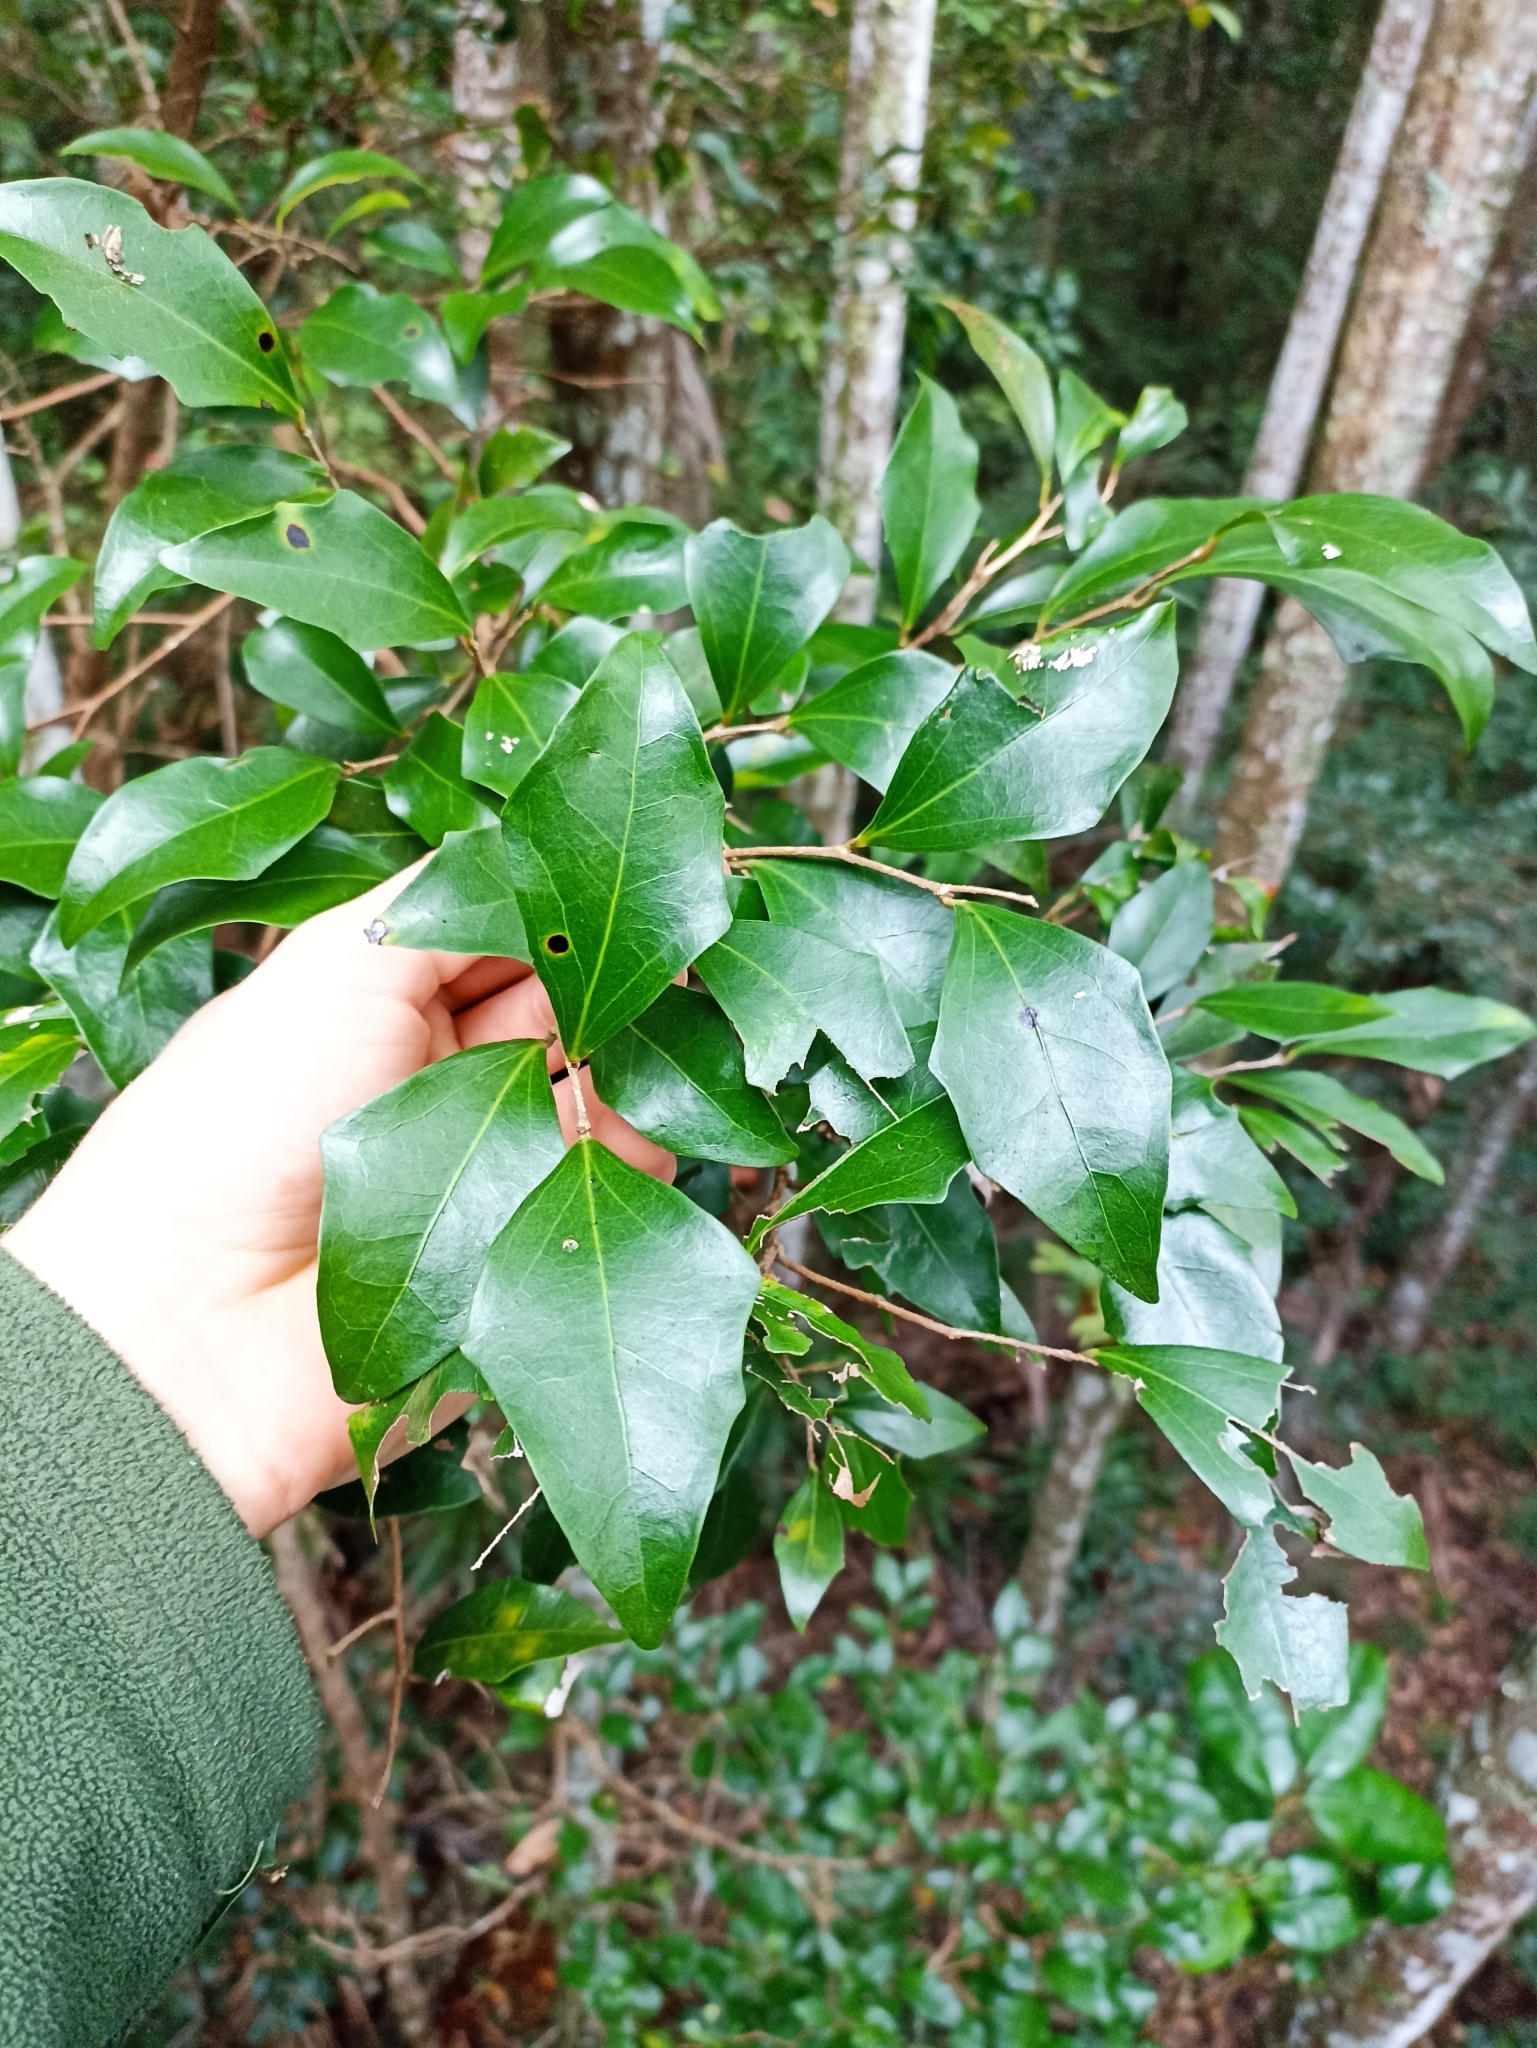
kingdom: Plantae
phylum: Tracheophyta
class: Magnoliopsida
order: Malpighiales
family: Salicaceae
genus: Scolopia
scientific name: Scolopia braunii
